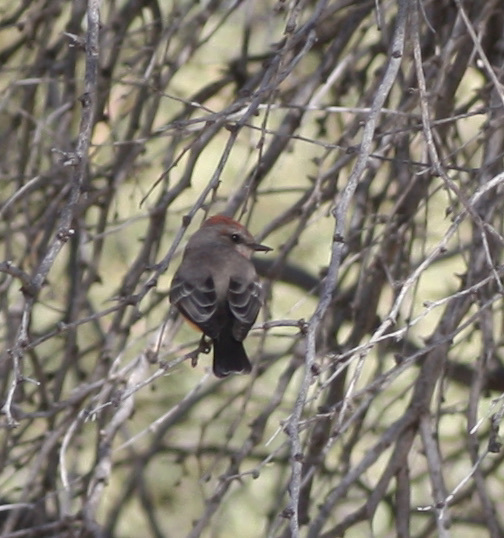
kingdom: Animalia
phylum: Chordata
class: Aves
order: Passeriformes
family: Tyrannidae
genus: Pyrocephalus
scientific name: Pyrocephalus rubinus
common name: Vermilion flycatcher
